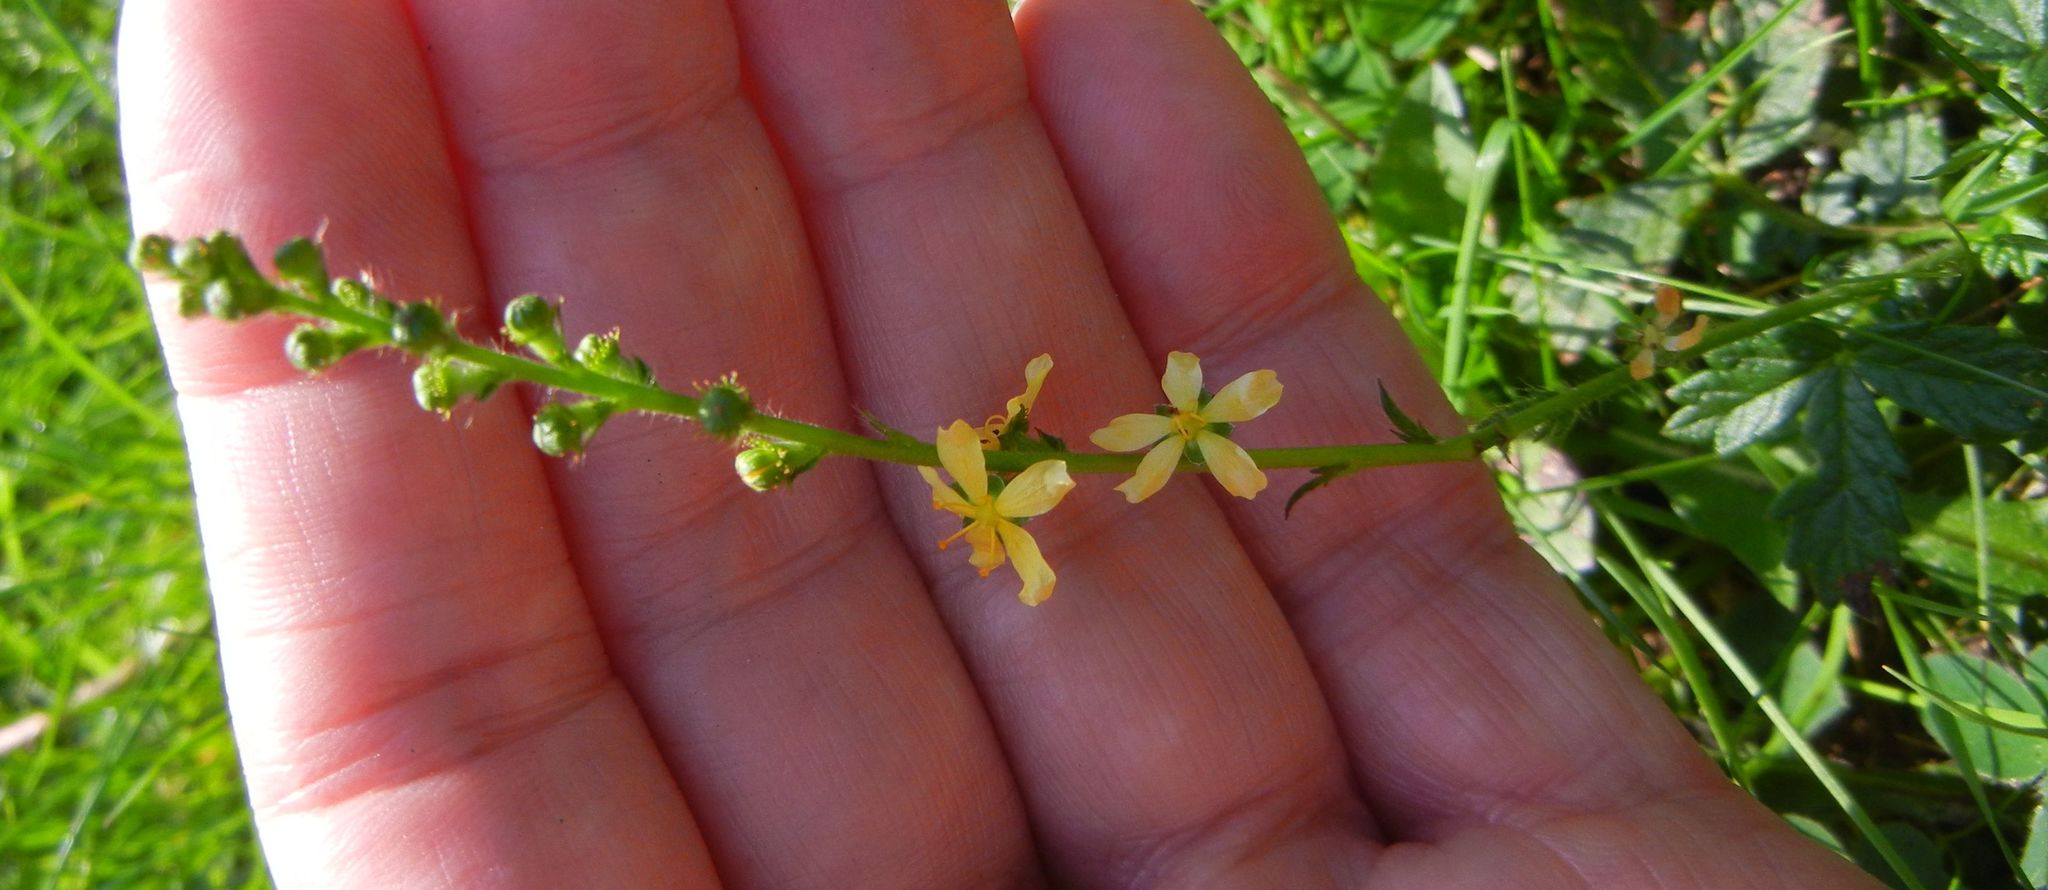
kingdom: Plantae
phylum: Tracheophyta
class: Magnoliopsida
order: Rosales
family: Rosaceae
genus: Agrimonia
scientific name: Agrimonia eupatoria
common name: Agrimony
